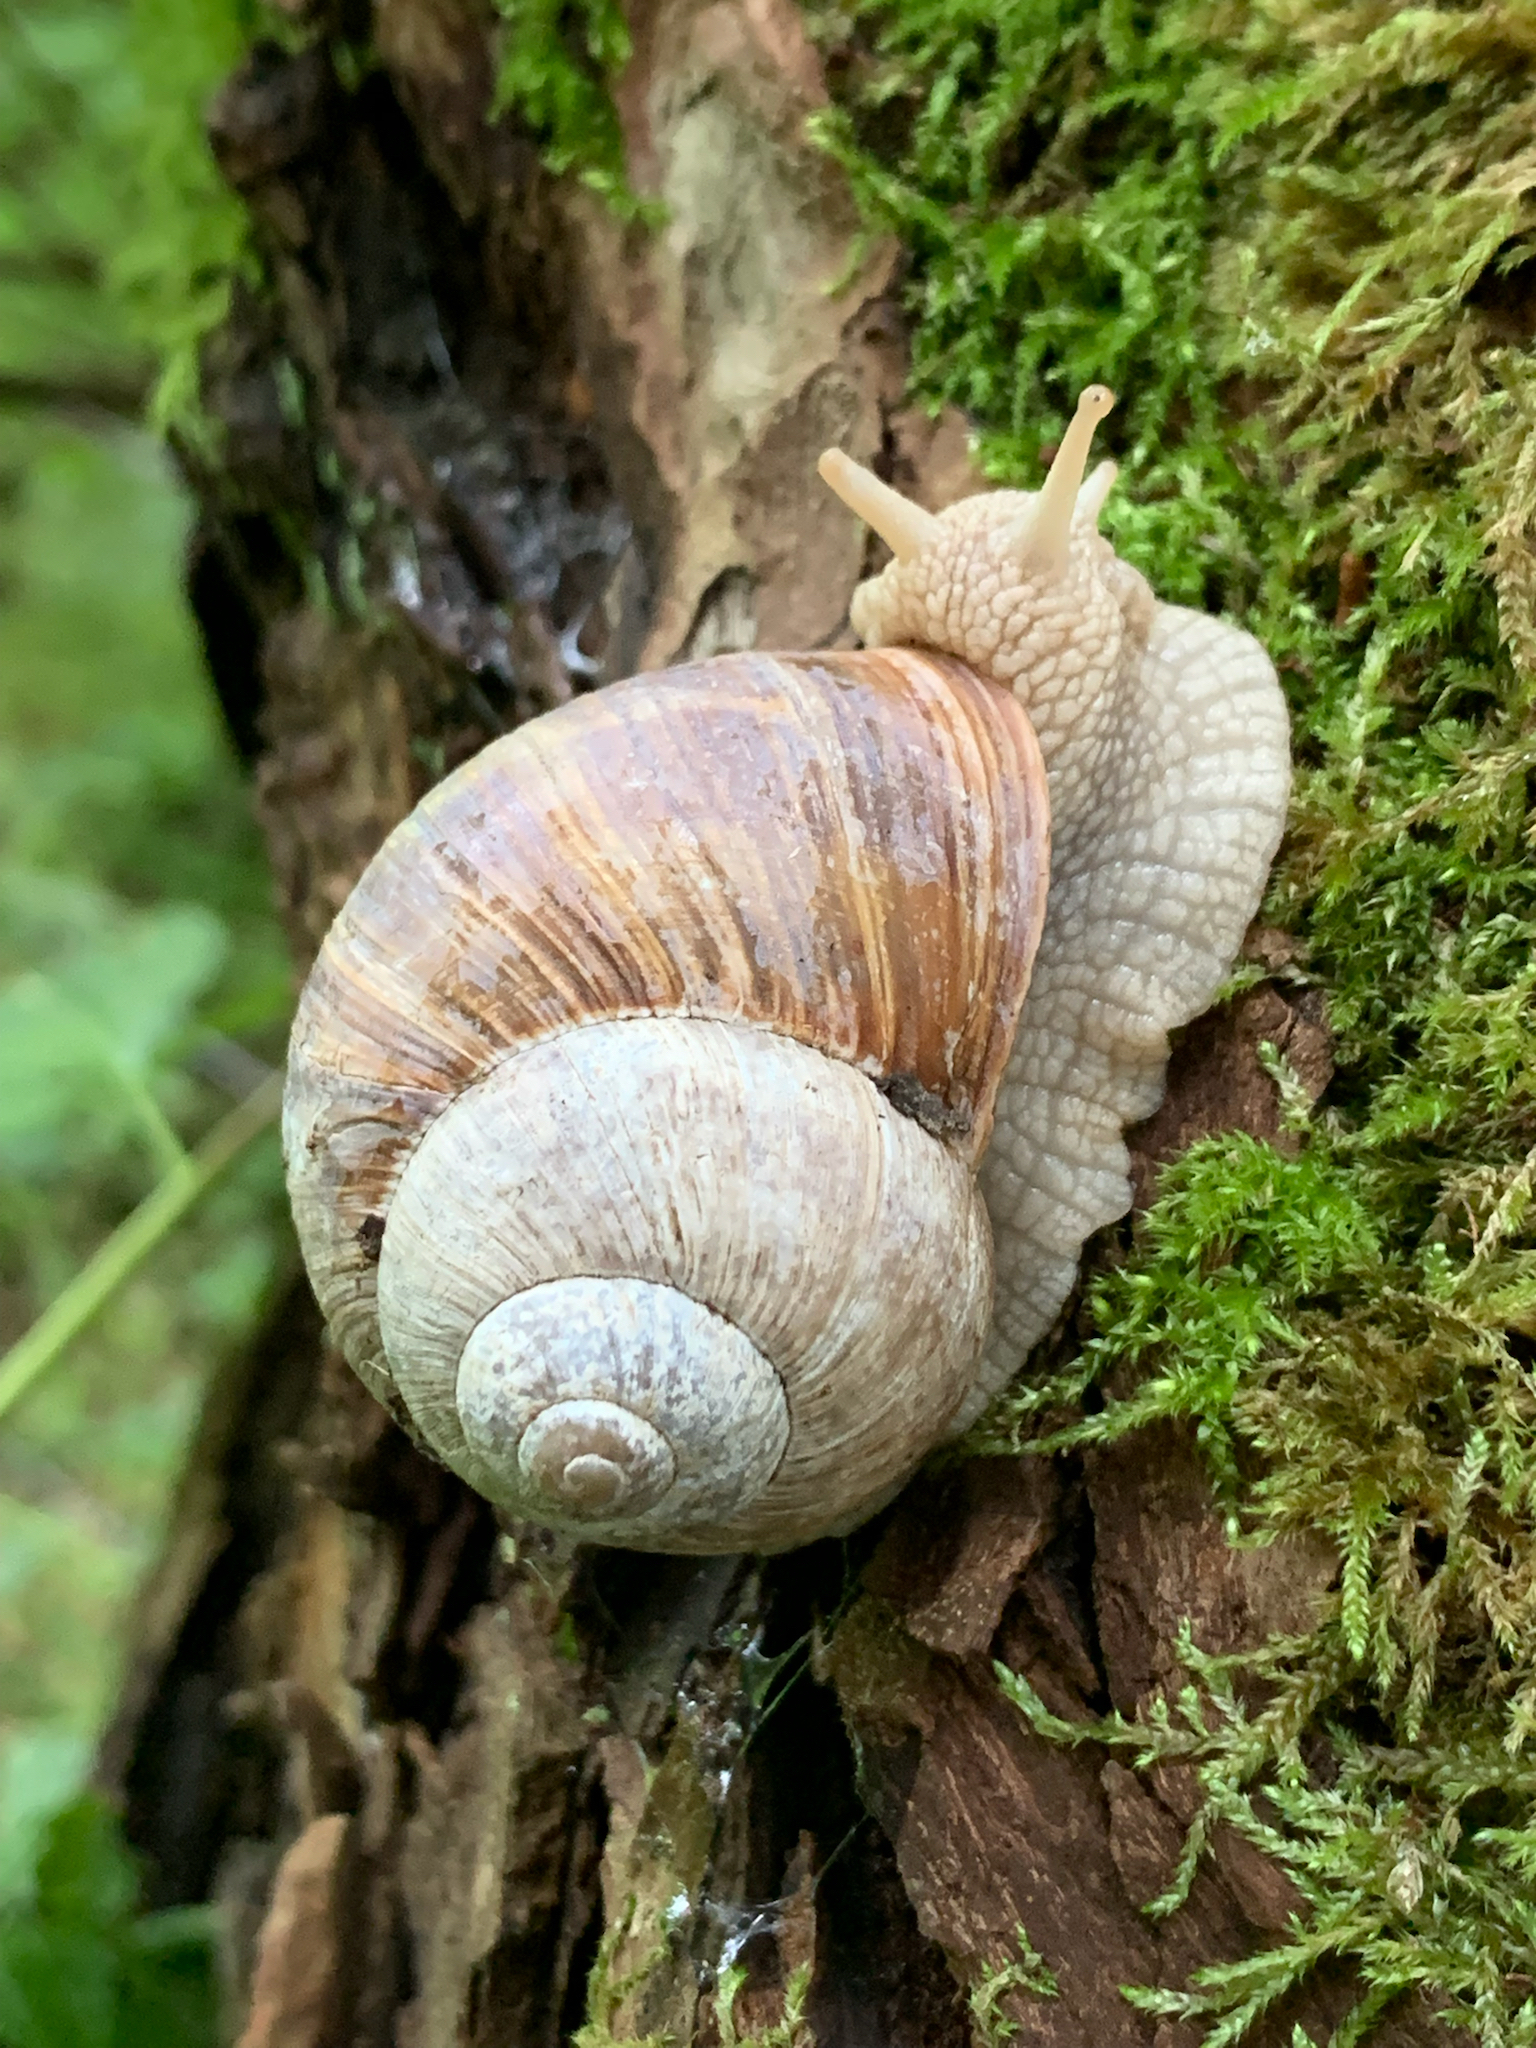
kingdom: Animalia
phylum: Mollusca
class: Gastropoda
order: Stylommatophora
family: Helicidae
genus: Helix
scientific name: Helix pomatia
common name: Roman snail
